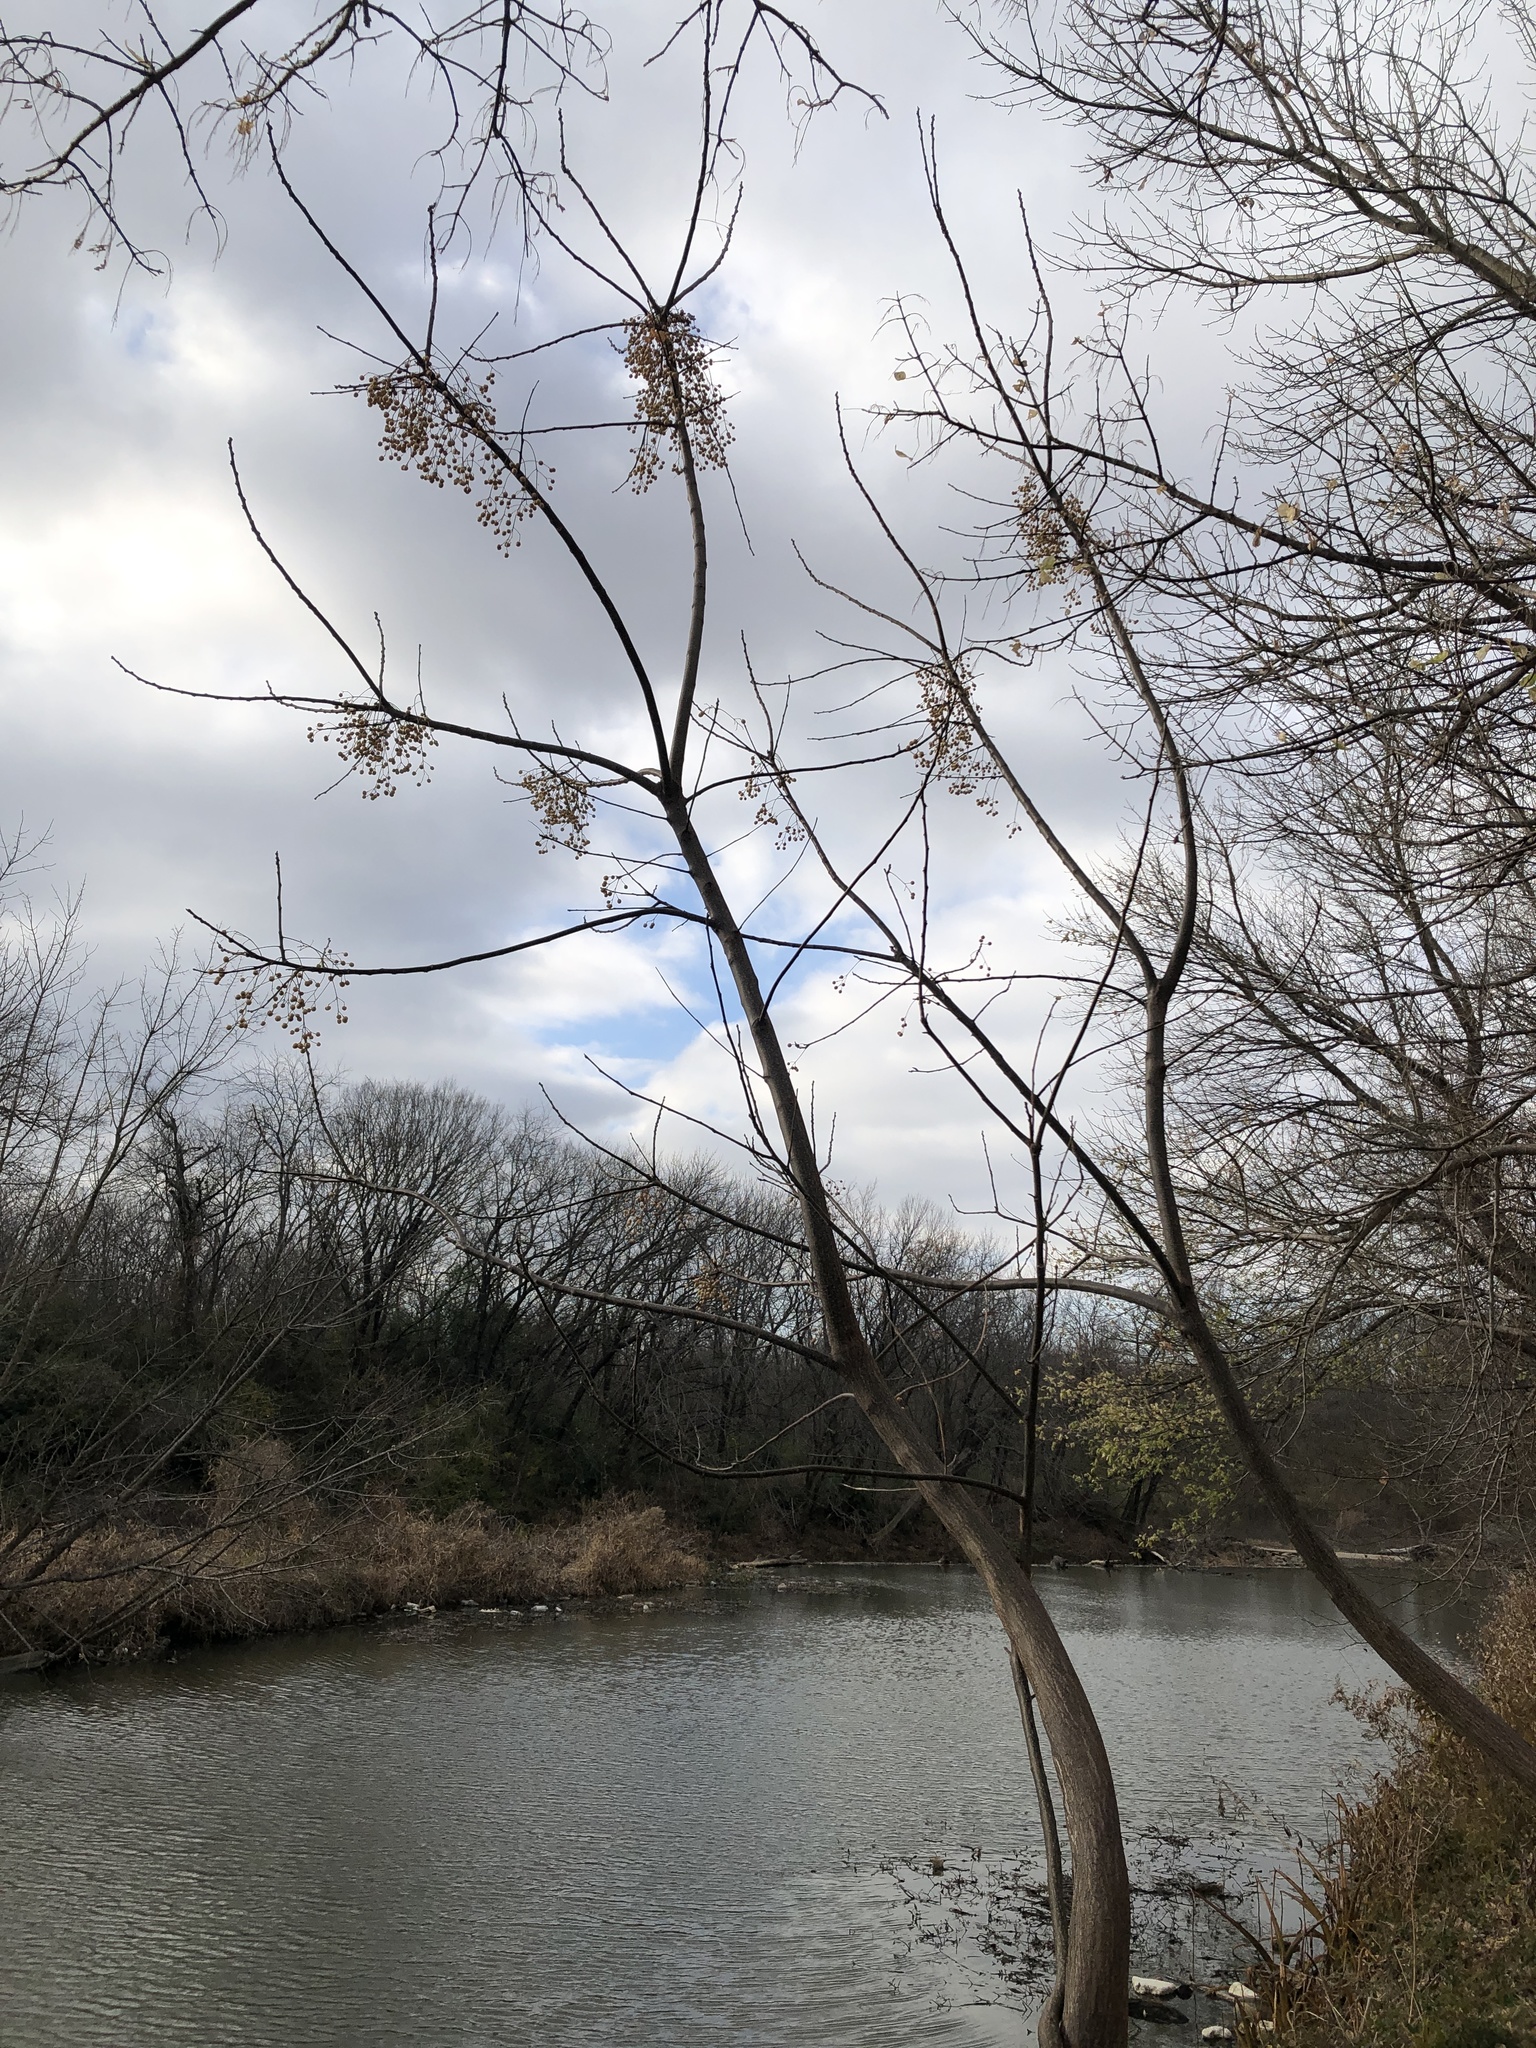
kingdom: Plantae
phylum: Tracheophyta
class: Magnoliopsida
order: Sapindales
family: Meliaceae
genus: Melia
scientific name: Melia azedarach
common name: Chinaberrytree
